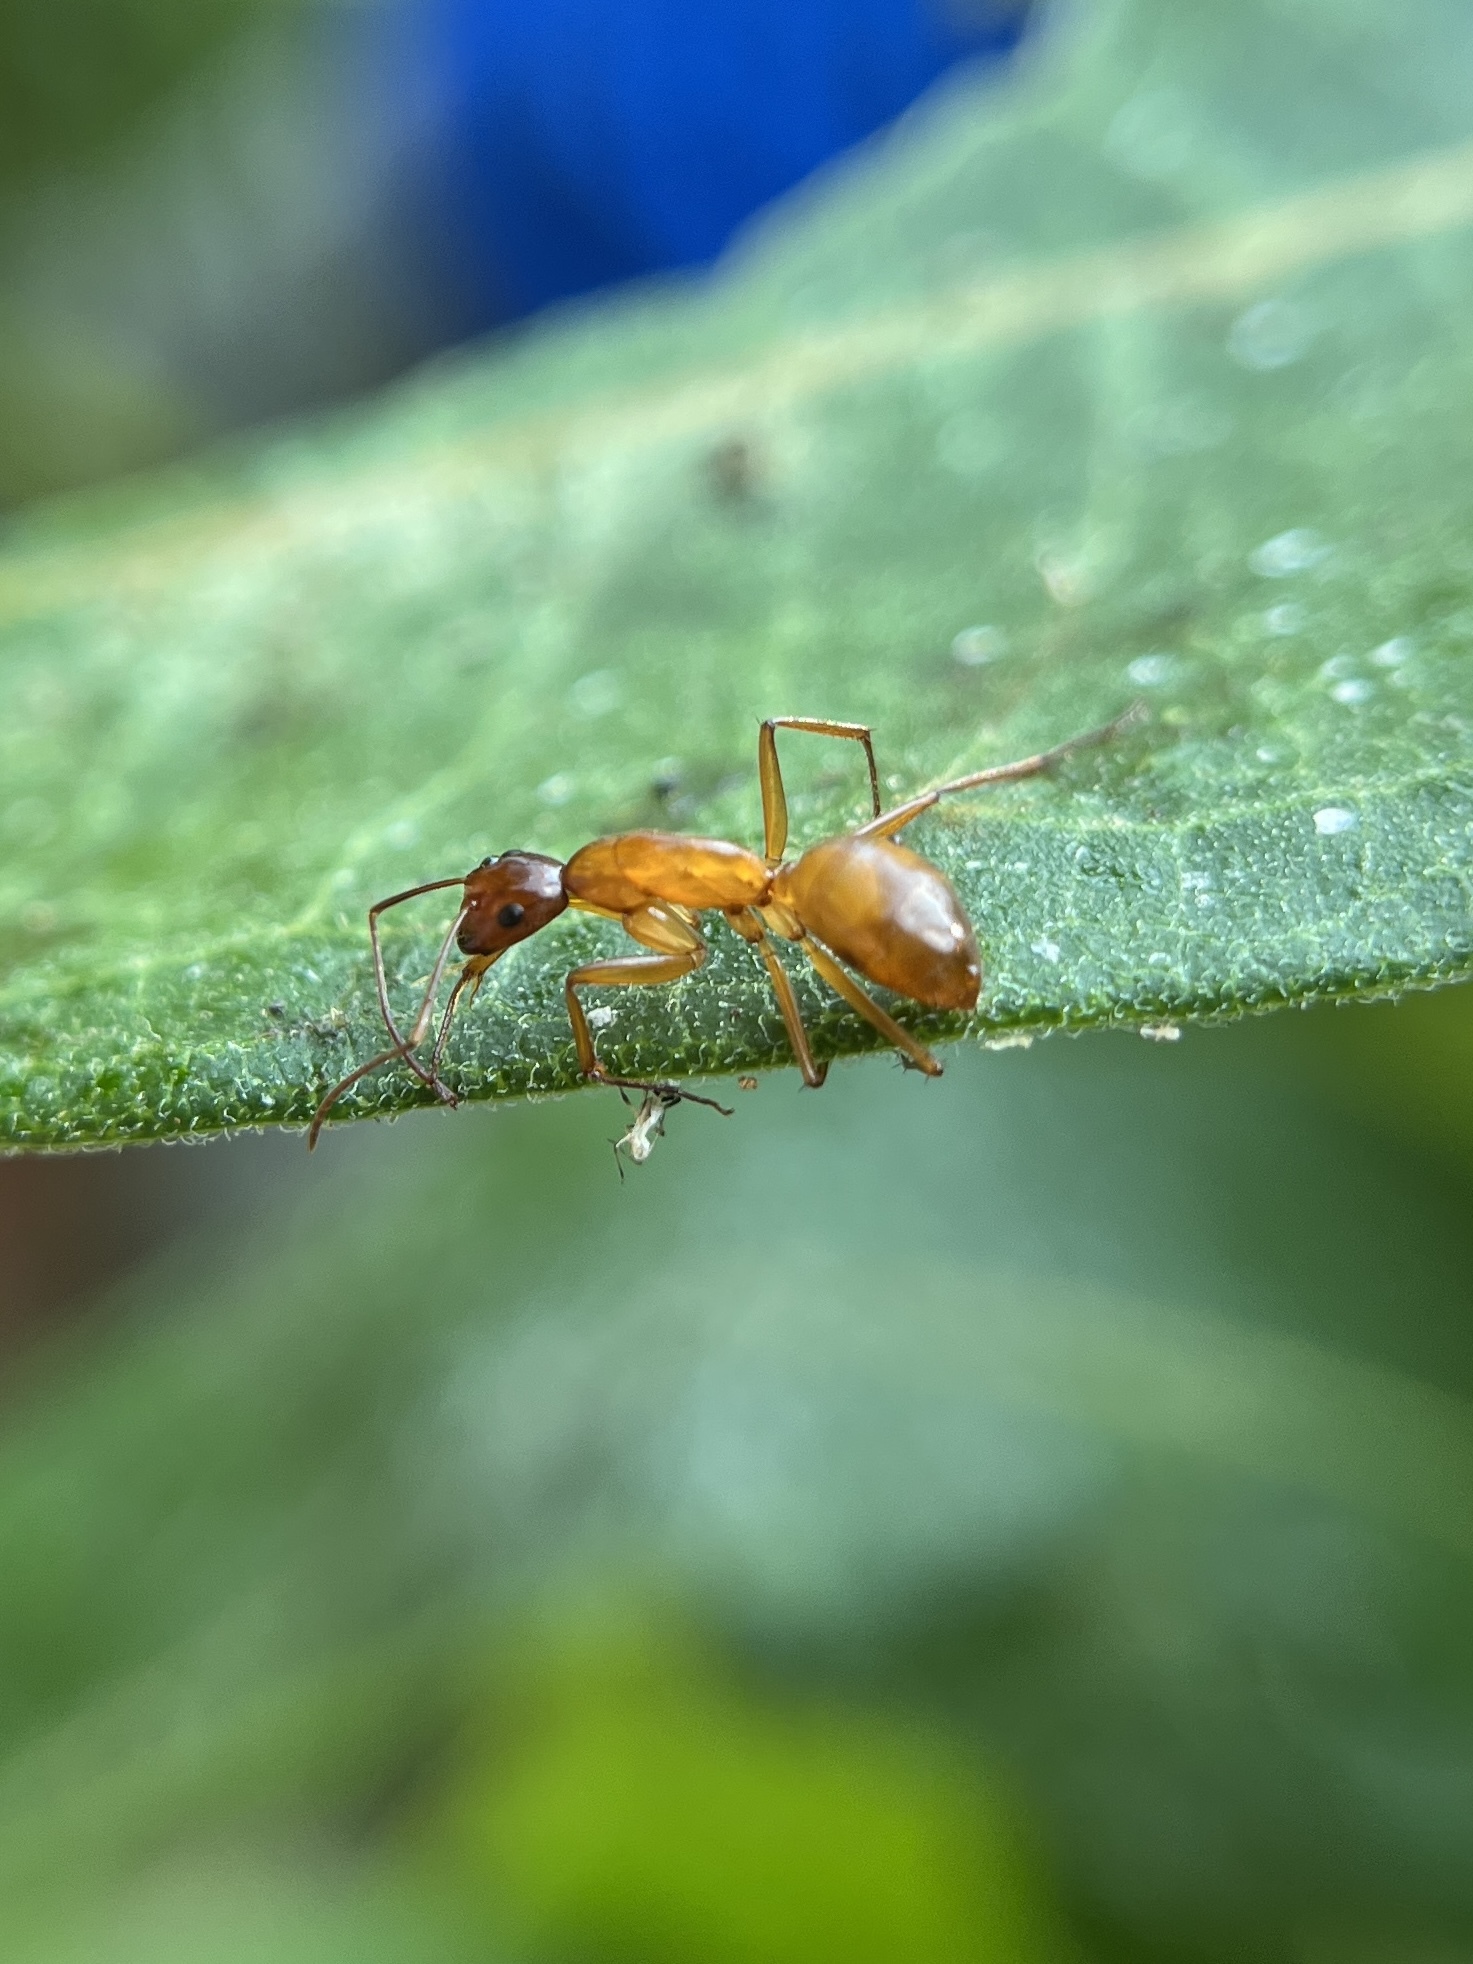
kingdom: Animalia
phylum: Arthropoda
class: Insecta
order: Hymenoptera
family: Formicidae
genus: Camponotus
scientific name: Camponotus castaneus
